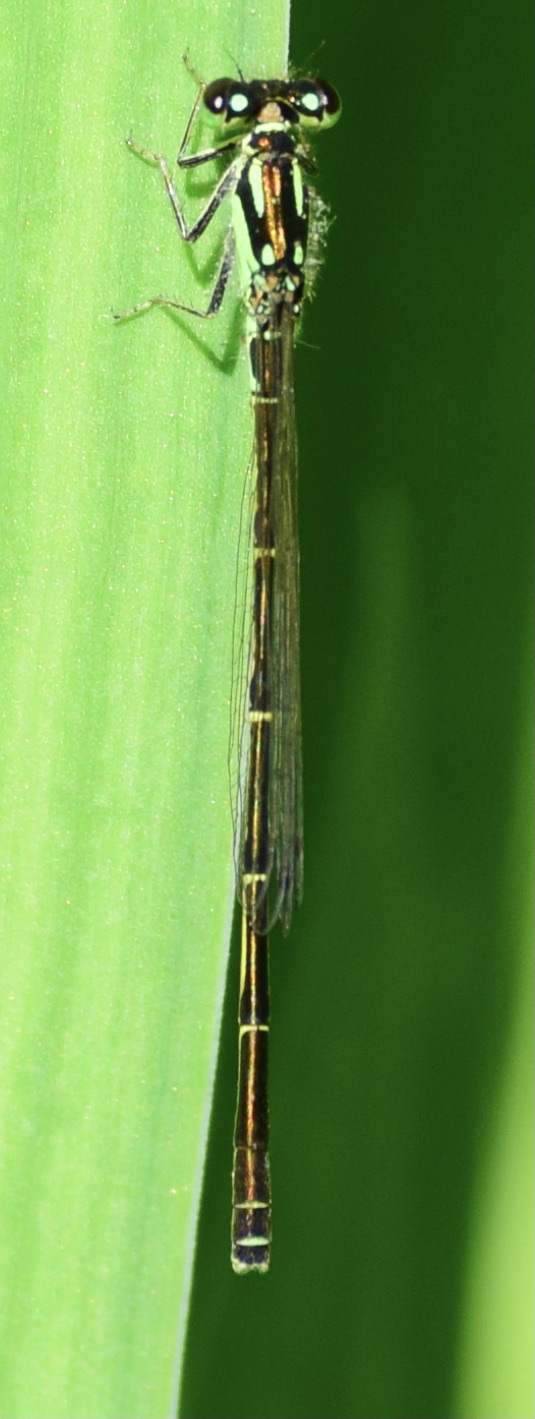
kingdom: Animalia
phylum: Arthropoda
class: Insecta
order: Odonata
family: Coenagrionidae
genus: Ischnura
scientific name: Ischnura posita
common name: Fragile forktail
